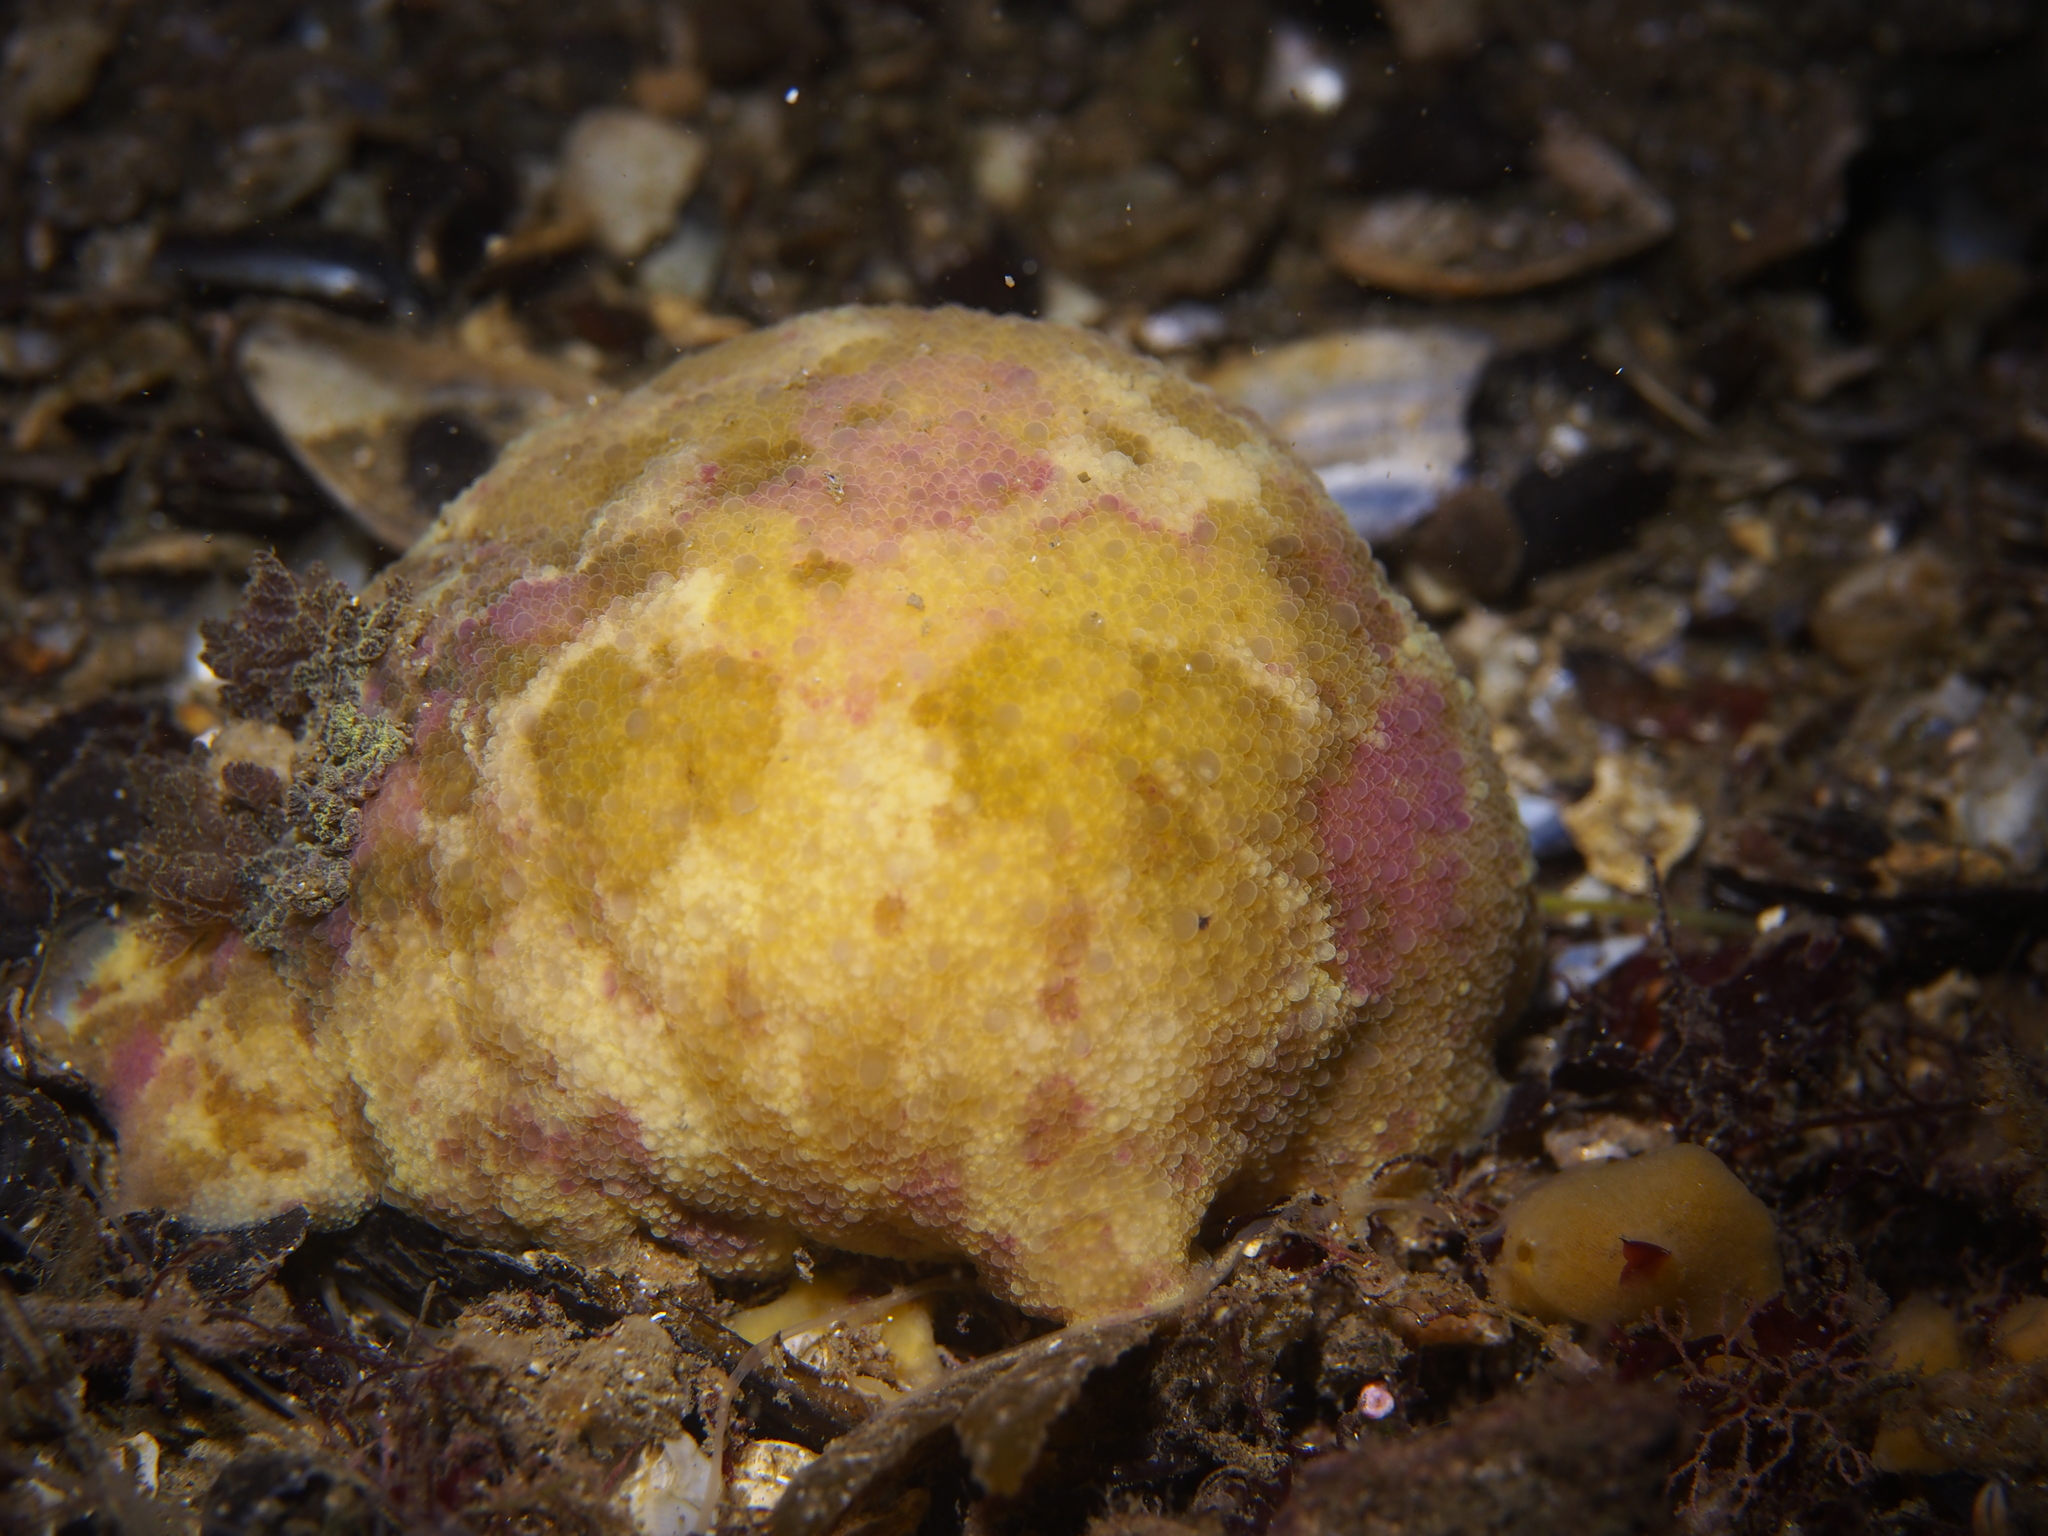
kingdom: Animalia
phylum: Mollusca
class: Gastropoda
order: Nudibranchia
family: Dorididae
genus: Doris
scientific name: Doris pseudoargus
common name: Sea lemon
